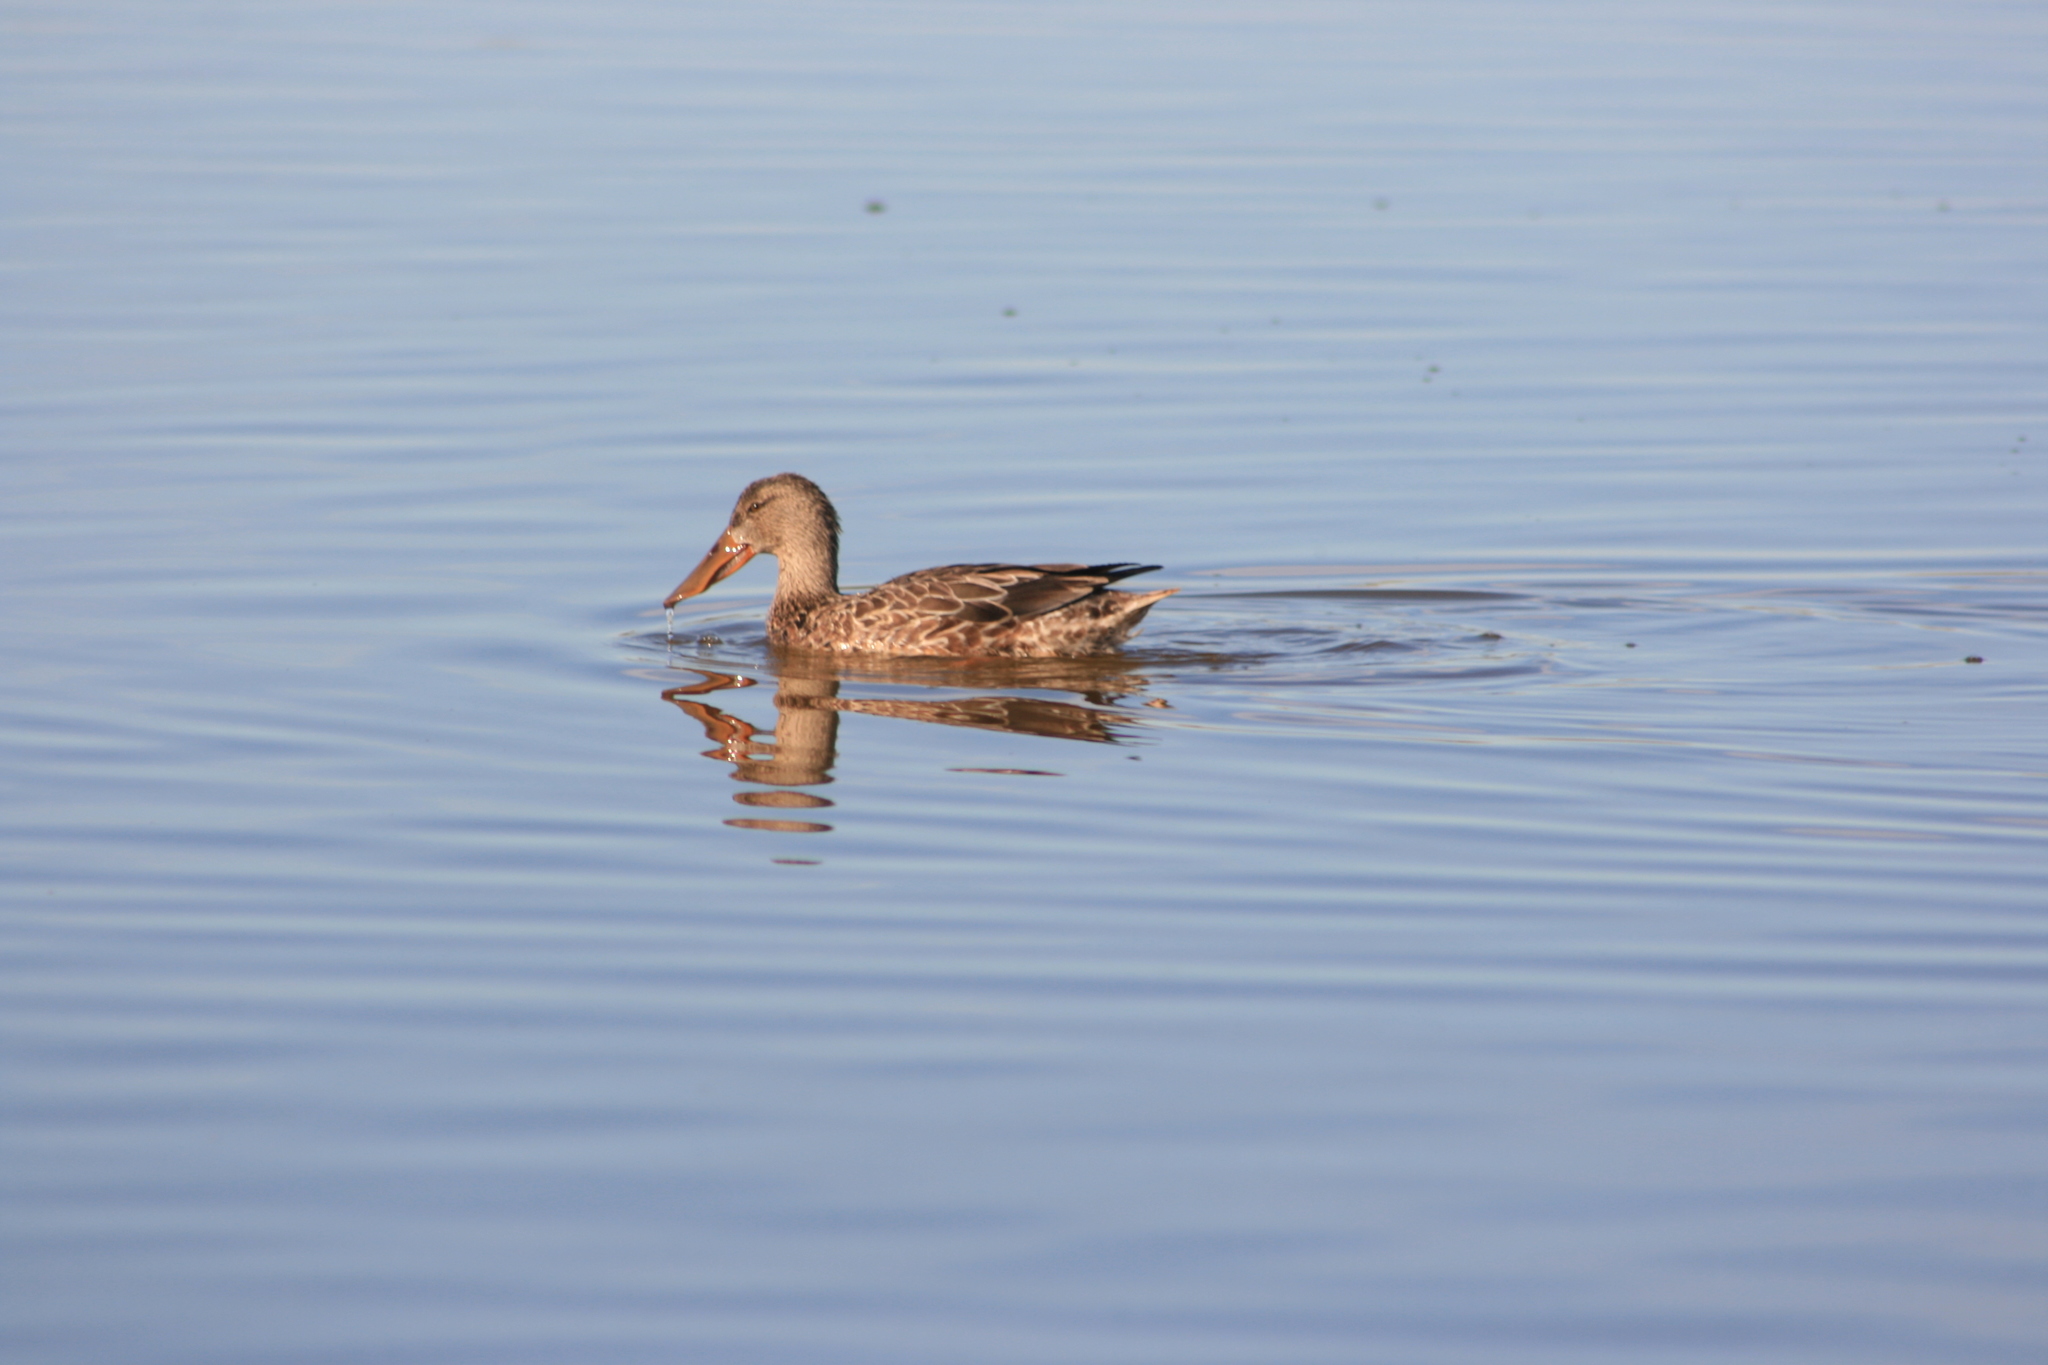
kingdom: Animalia
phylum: Chordata
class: Aves
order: Anseriformes
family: Anatidae
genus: Spatula
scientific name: Spatula clypeata
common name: Northern shoveler
